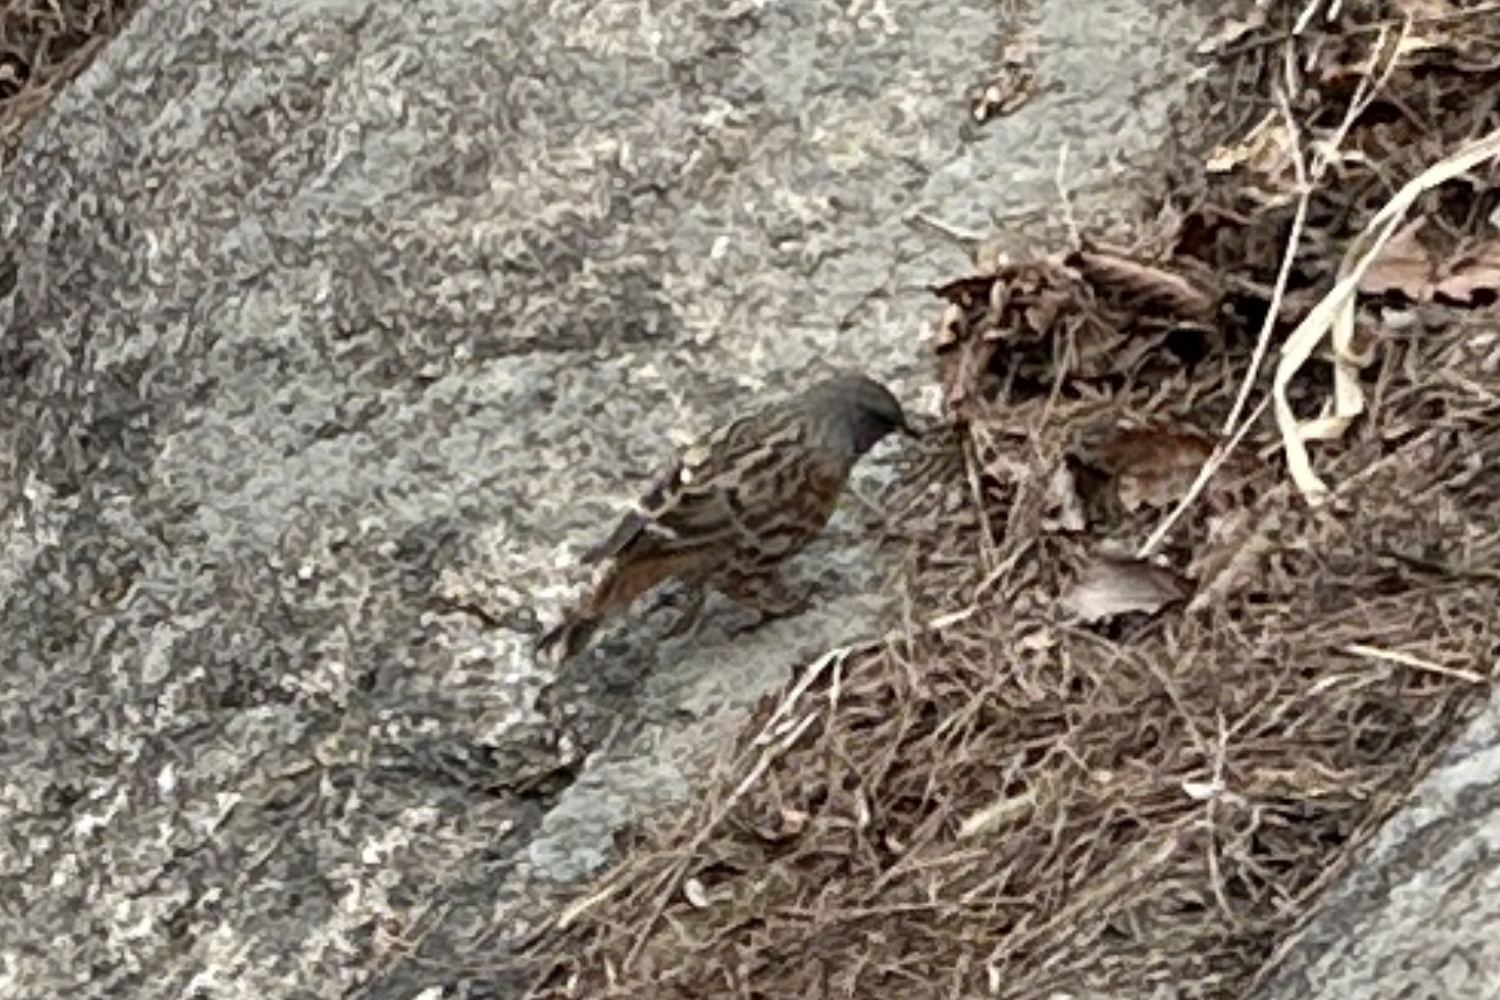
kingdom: Animalia
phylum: Chordata
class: Aves
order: Passeriformes
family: Prunellidae
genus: Prunella
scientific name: Prunella collaris
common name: Alpine accentor
